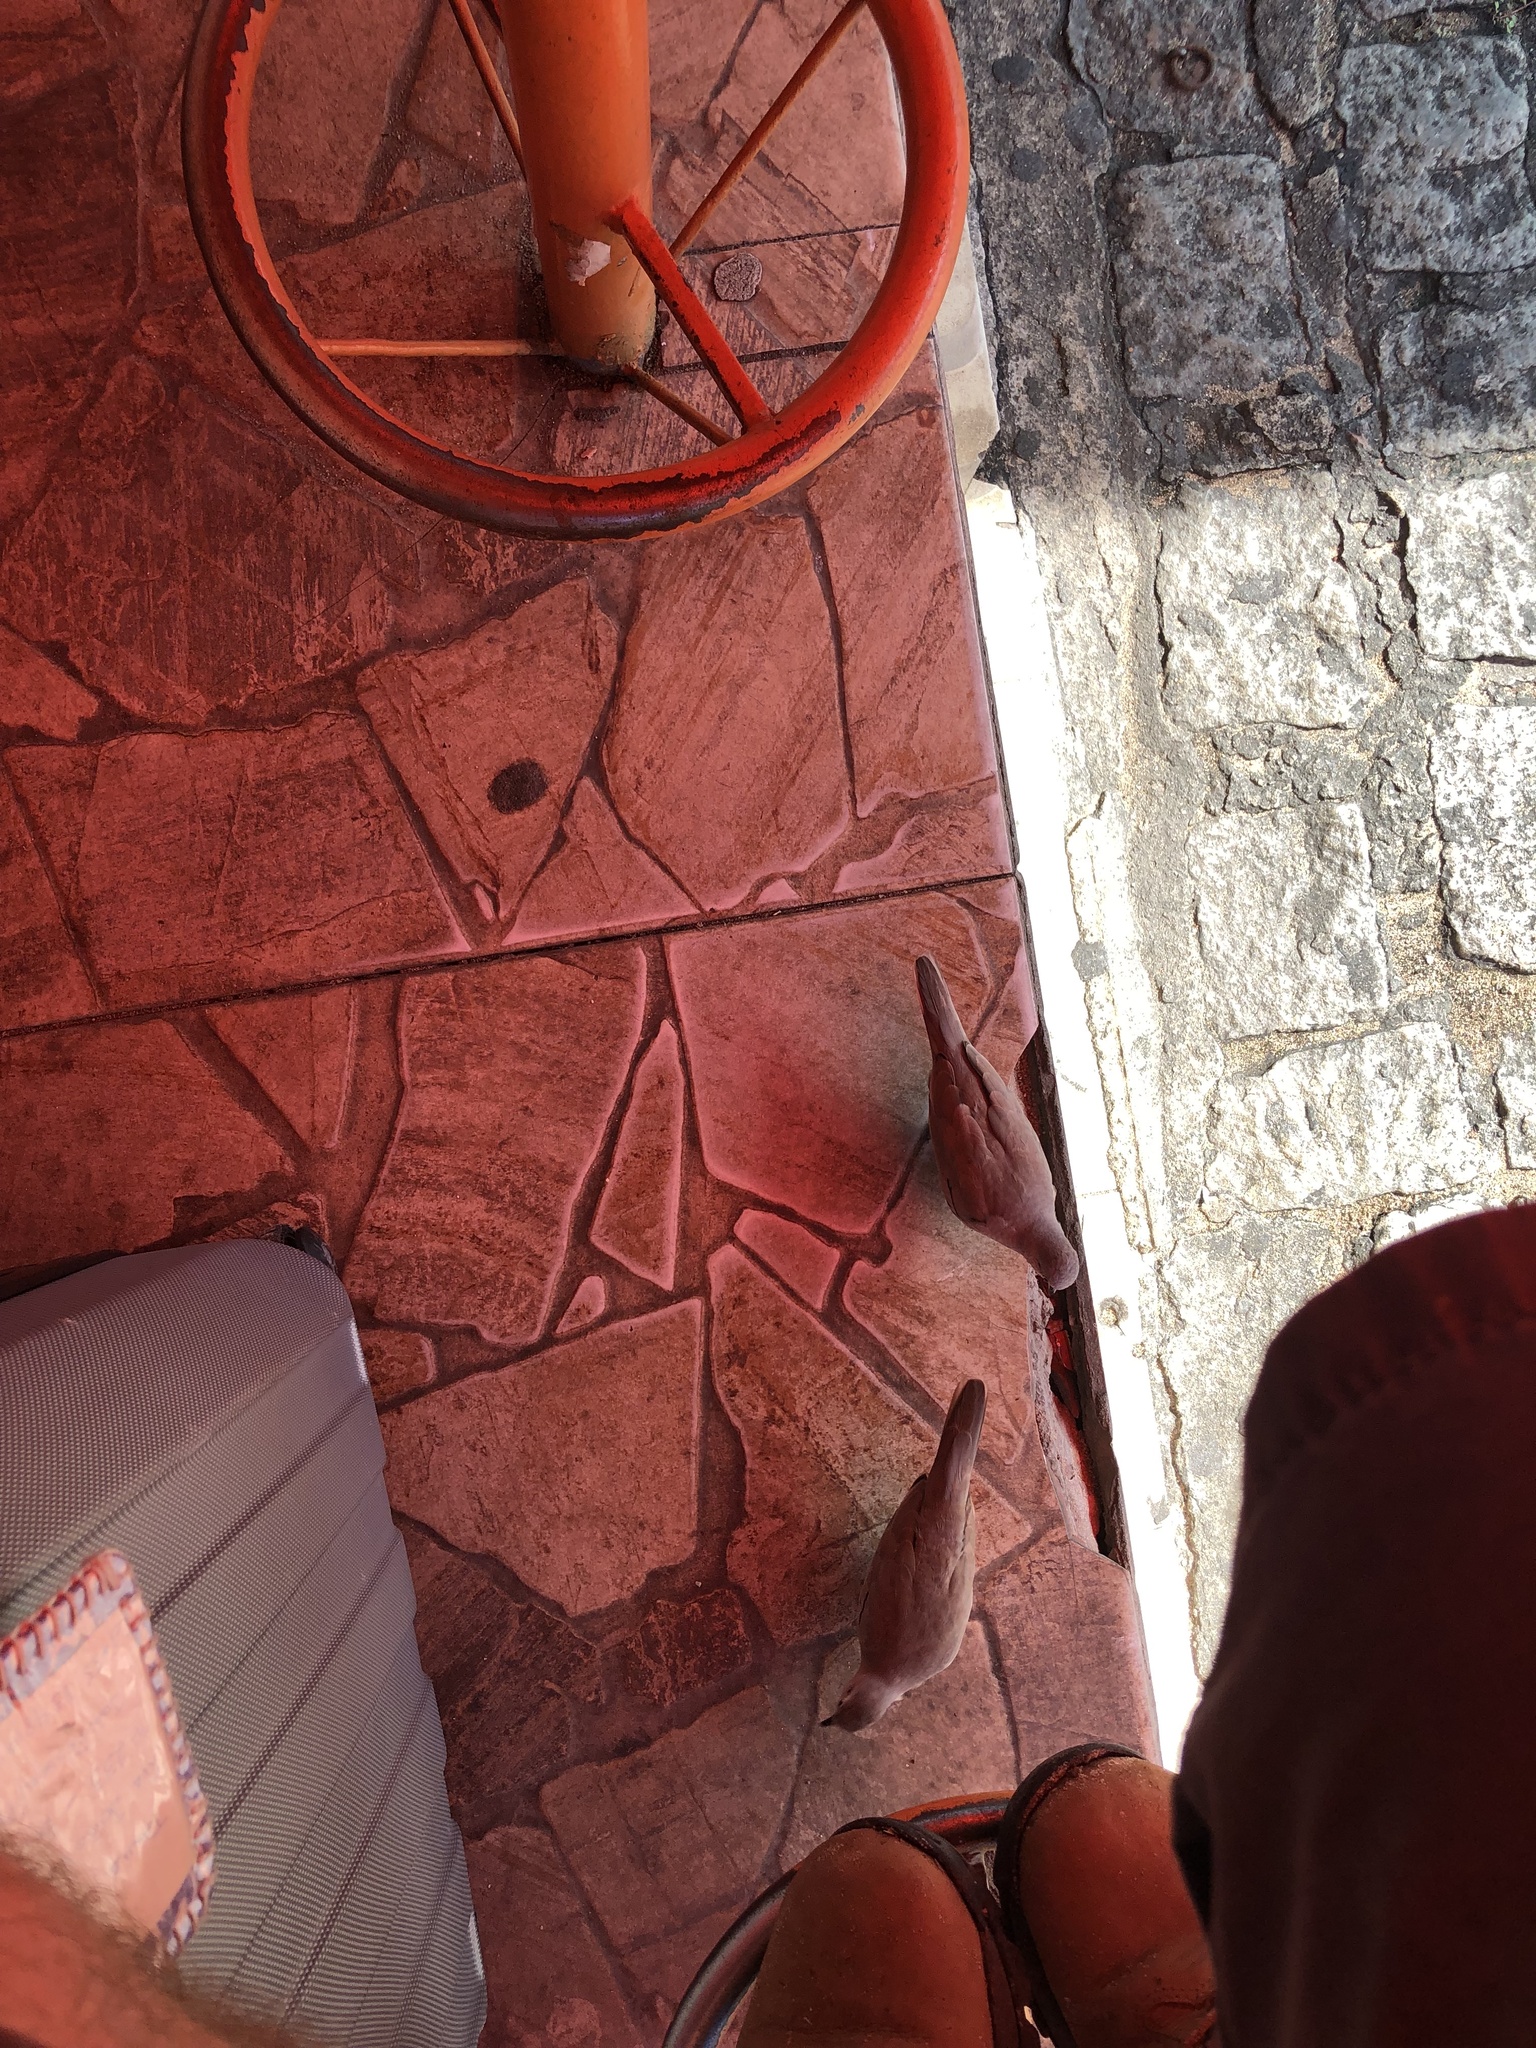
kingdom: Animalia
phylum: Chordata
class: Aves
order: Columbiformes
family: Columbidae
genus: Columbina
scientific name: Columbina picui
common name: Picui ground dove
